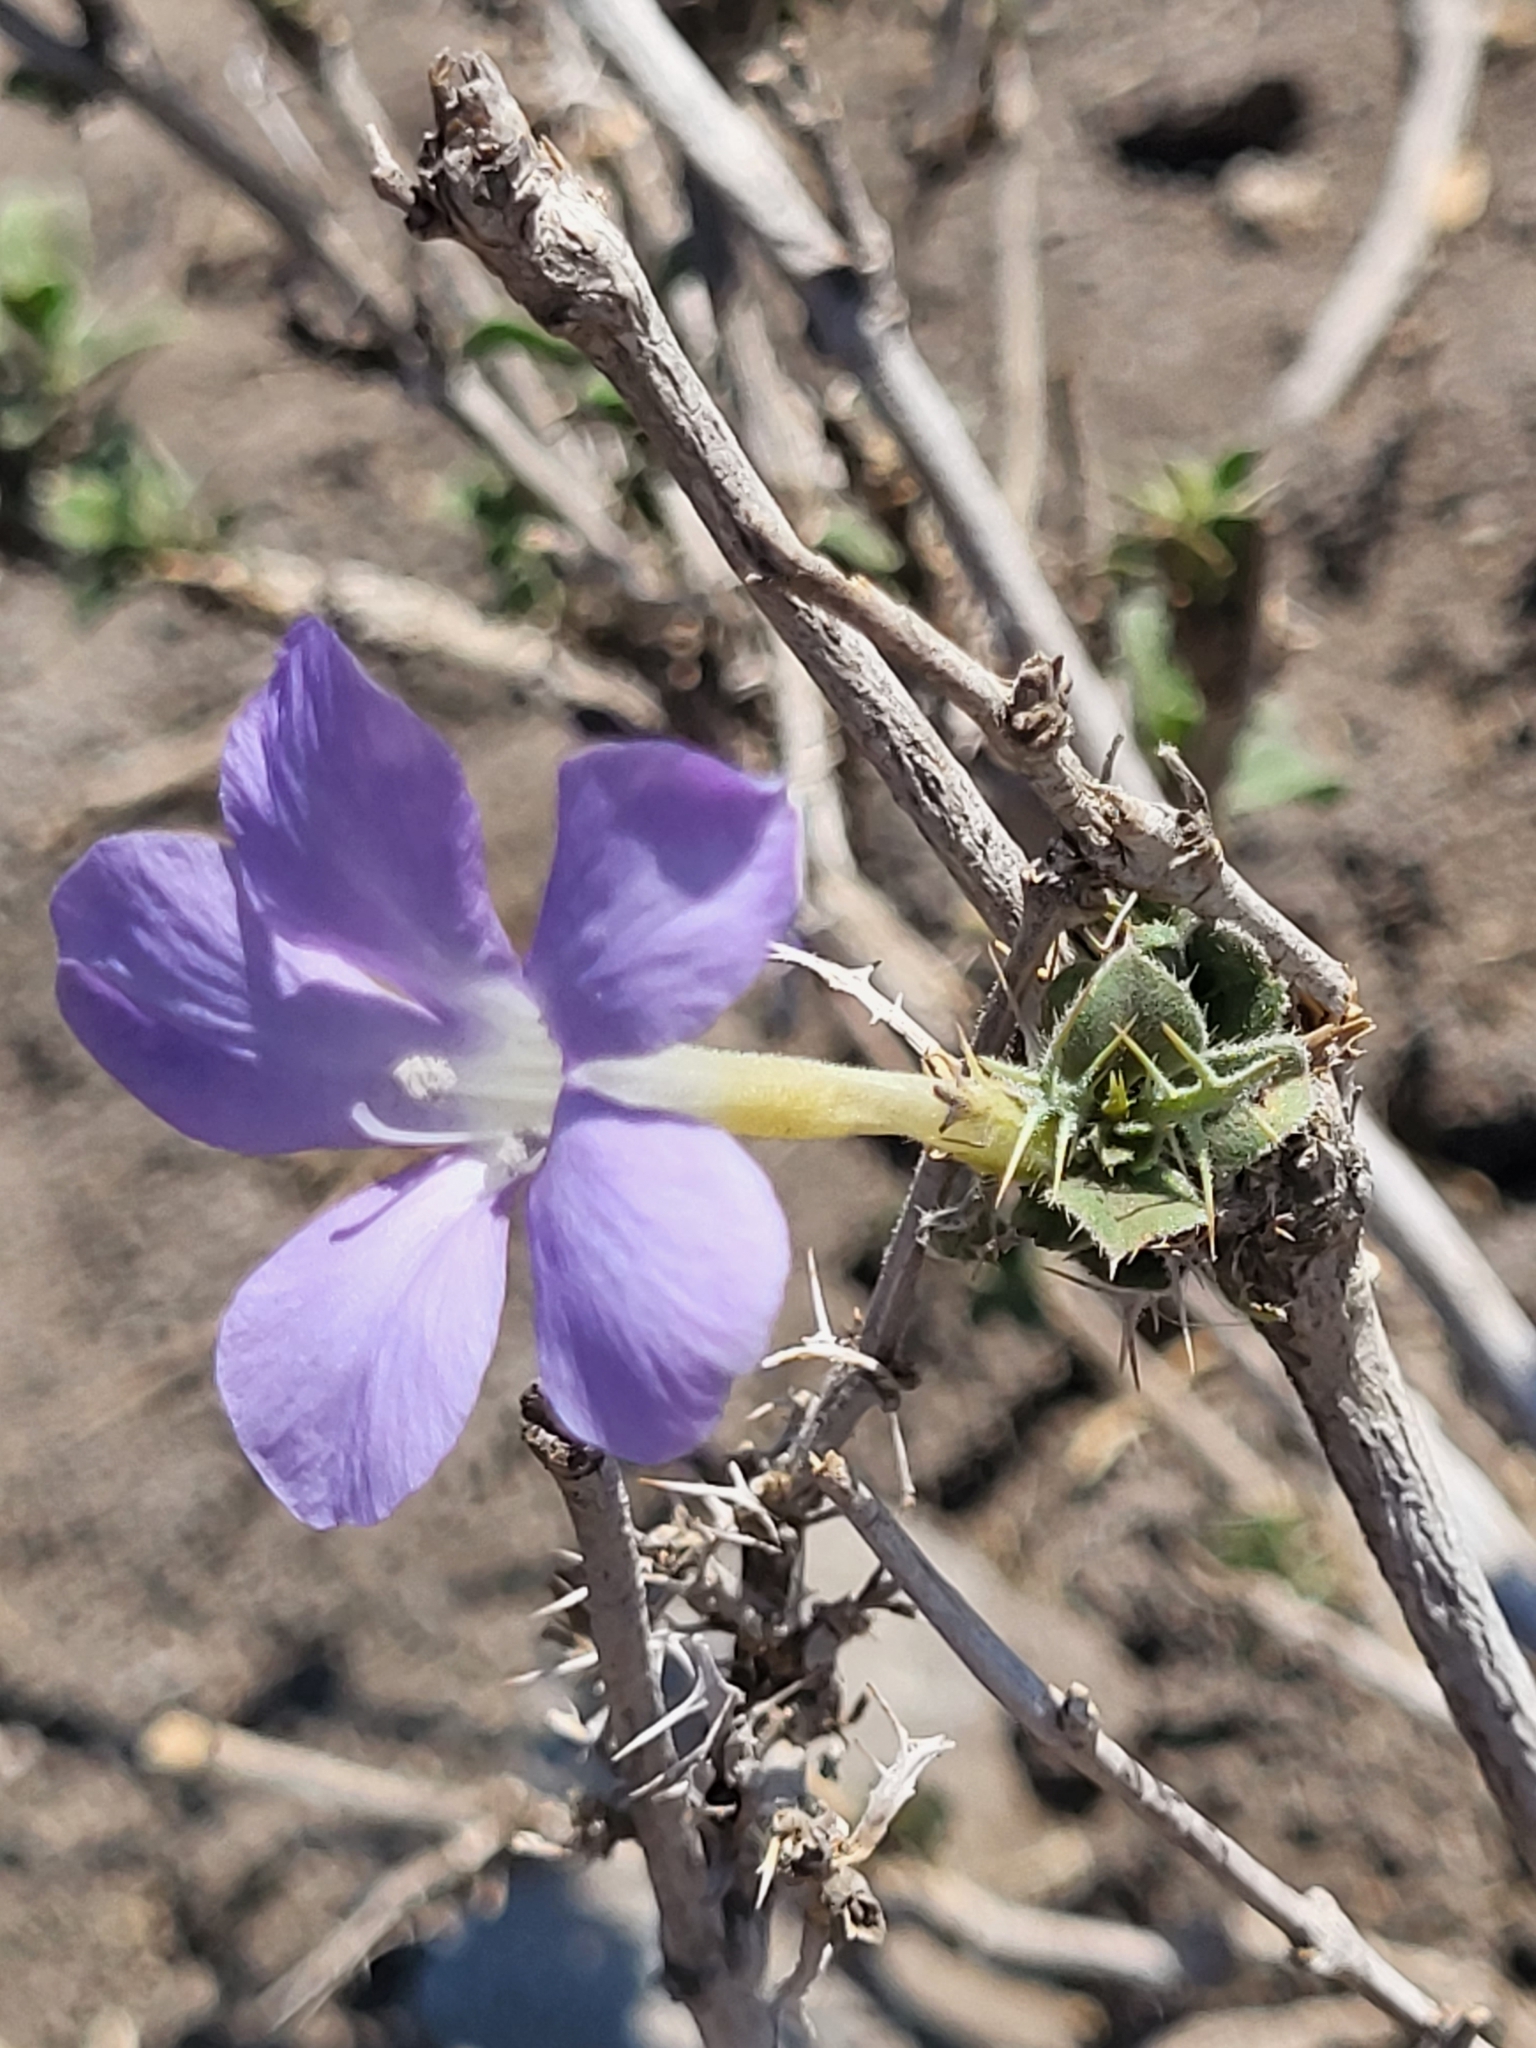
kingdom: Plantae
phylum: Tracheophyta
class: Magnoliopsida
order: Lamiales
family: Acanthaceae
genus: Barleria
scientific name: Barleria delamerei
